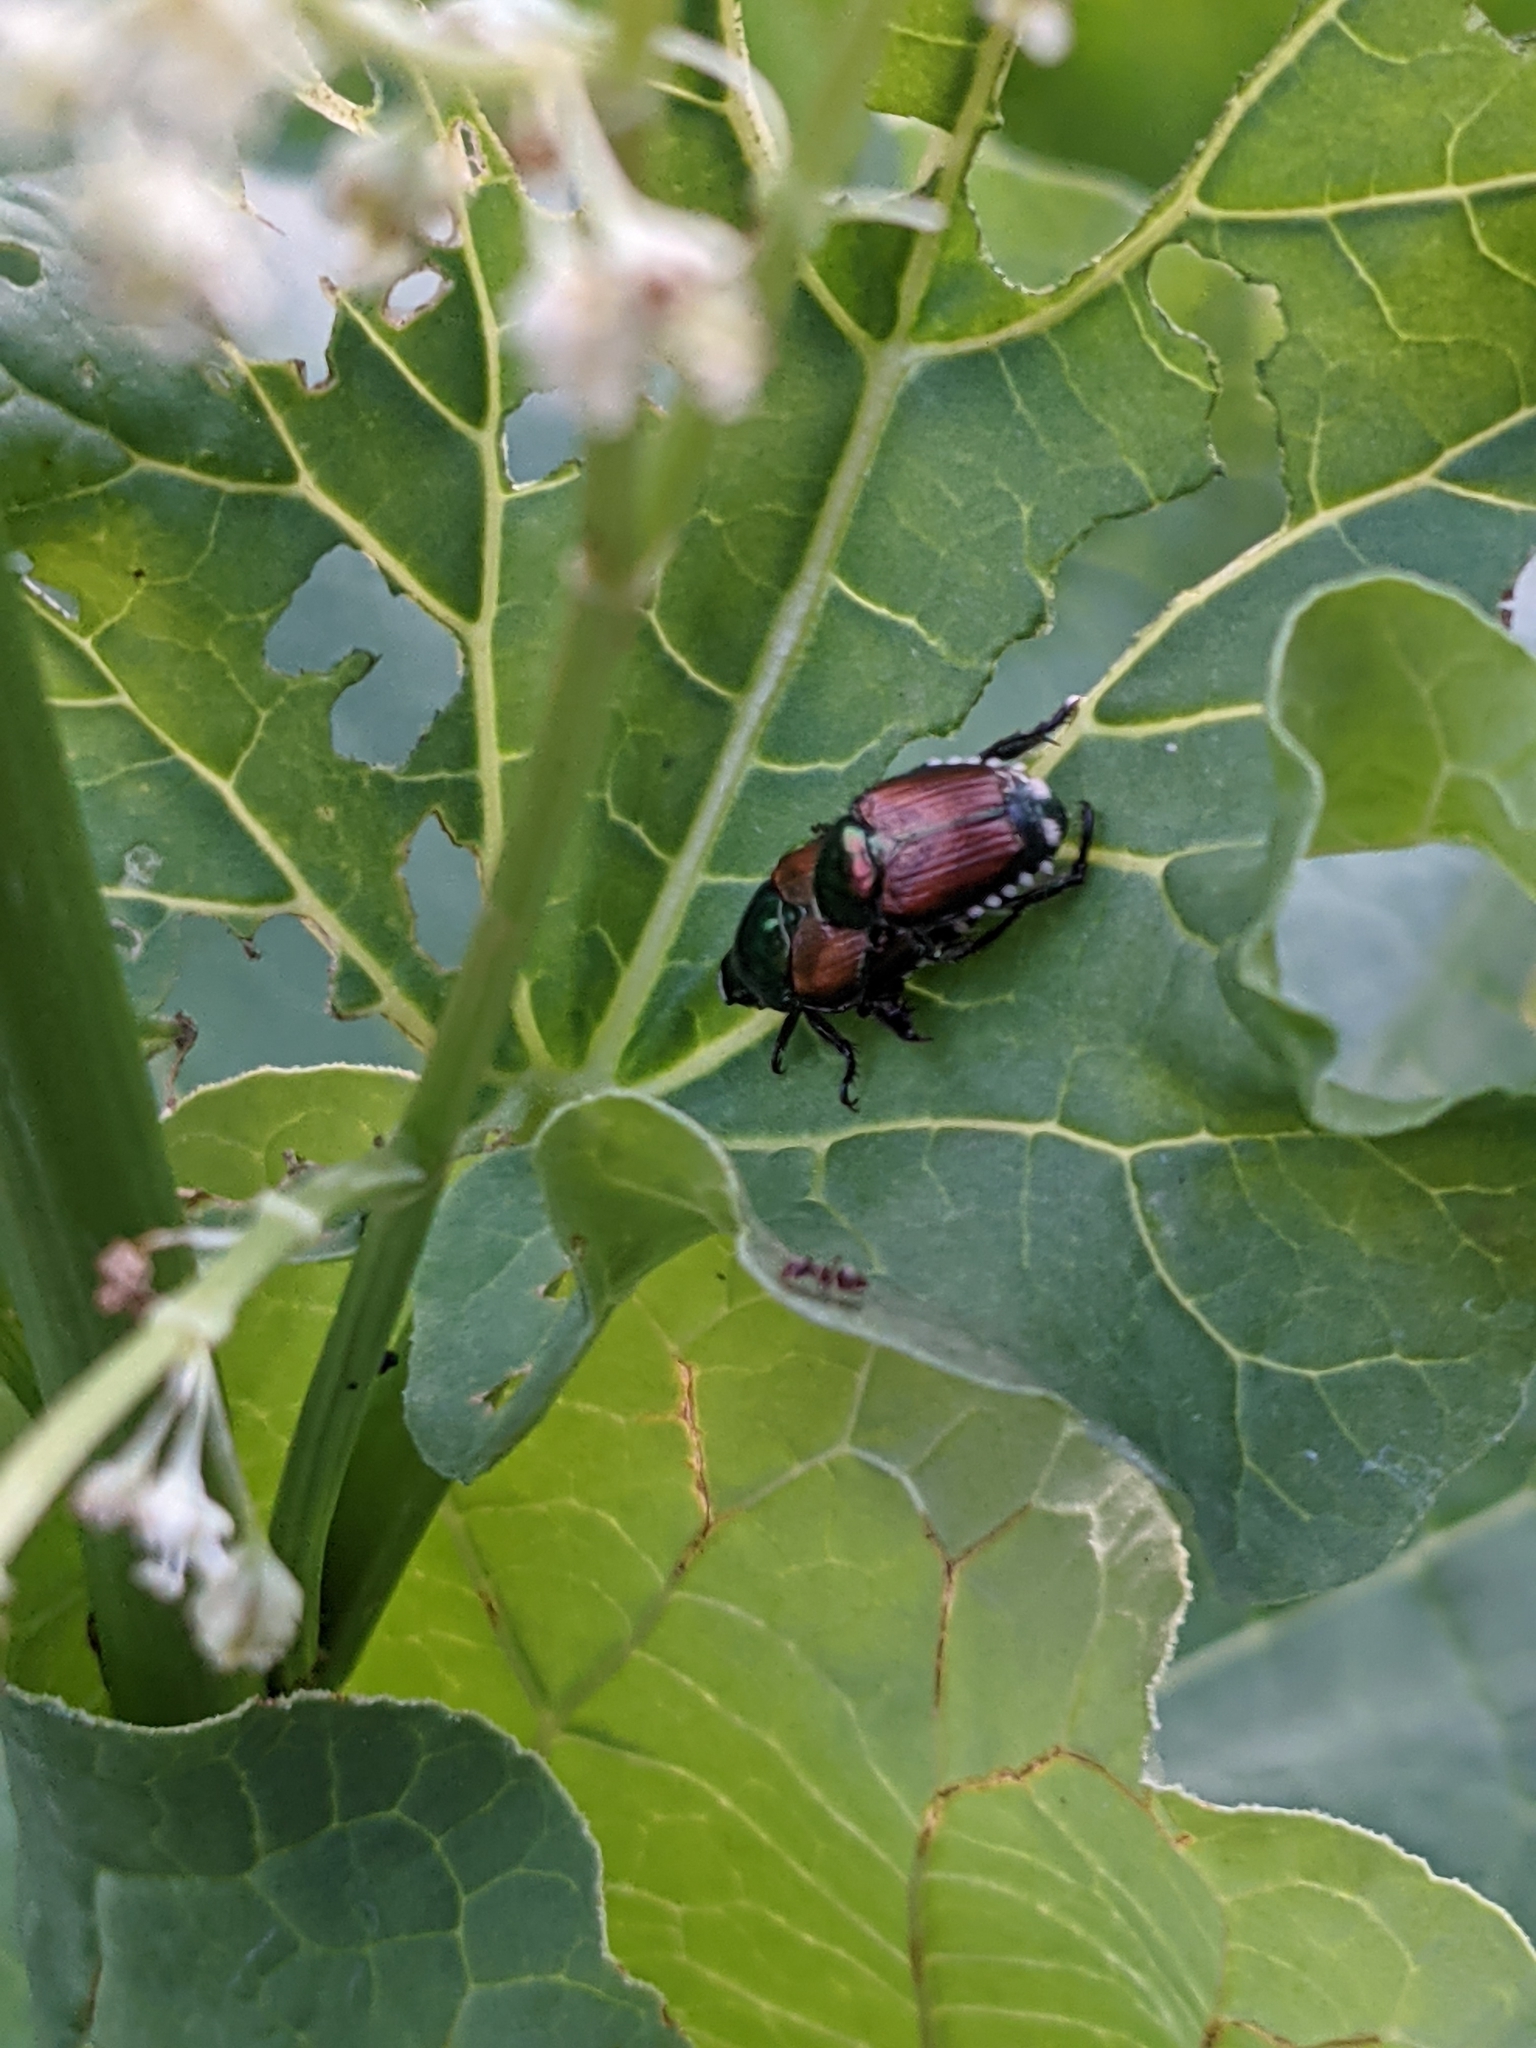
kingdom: Animalia
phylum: Arthropoda
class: Insecta
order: Coleoptera
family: Scarabaeidae
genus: Popillia
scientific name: Popillia japonica
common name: Japanese beetle
